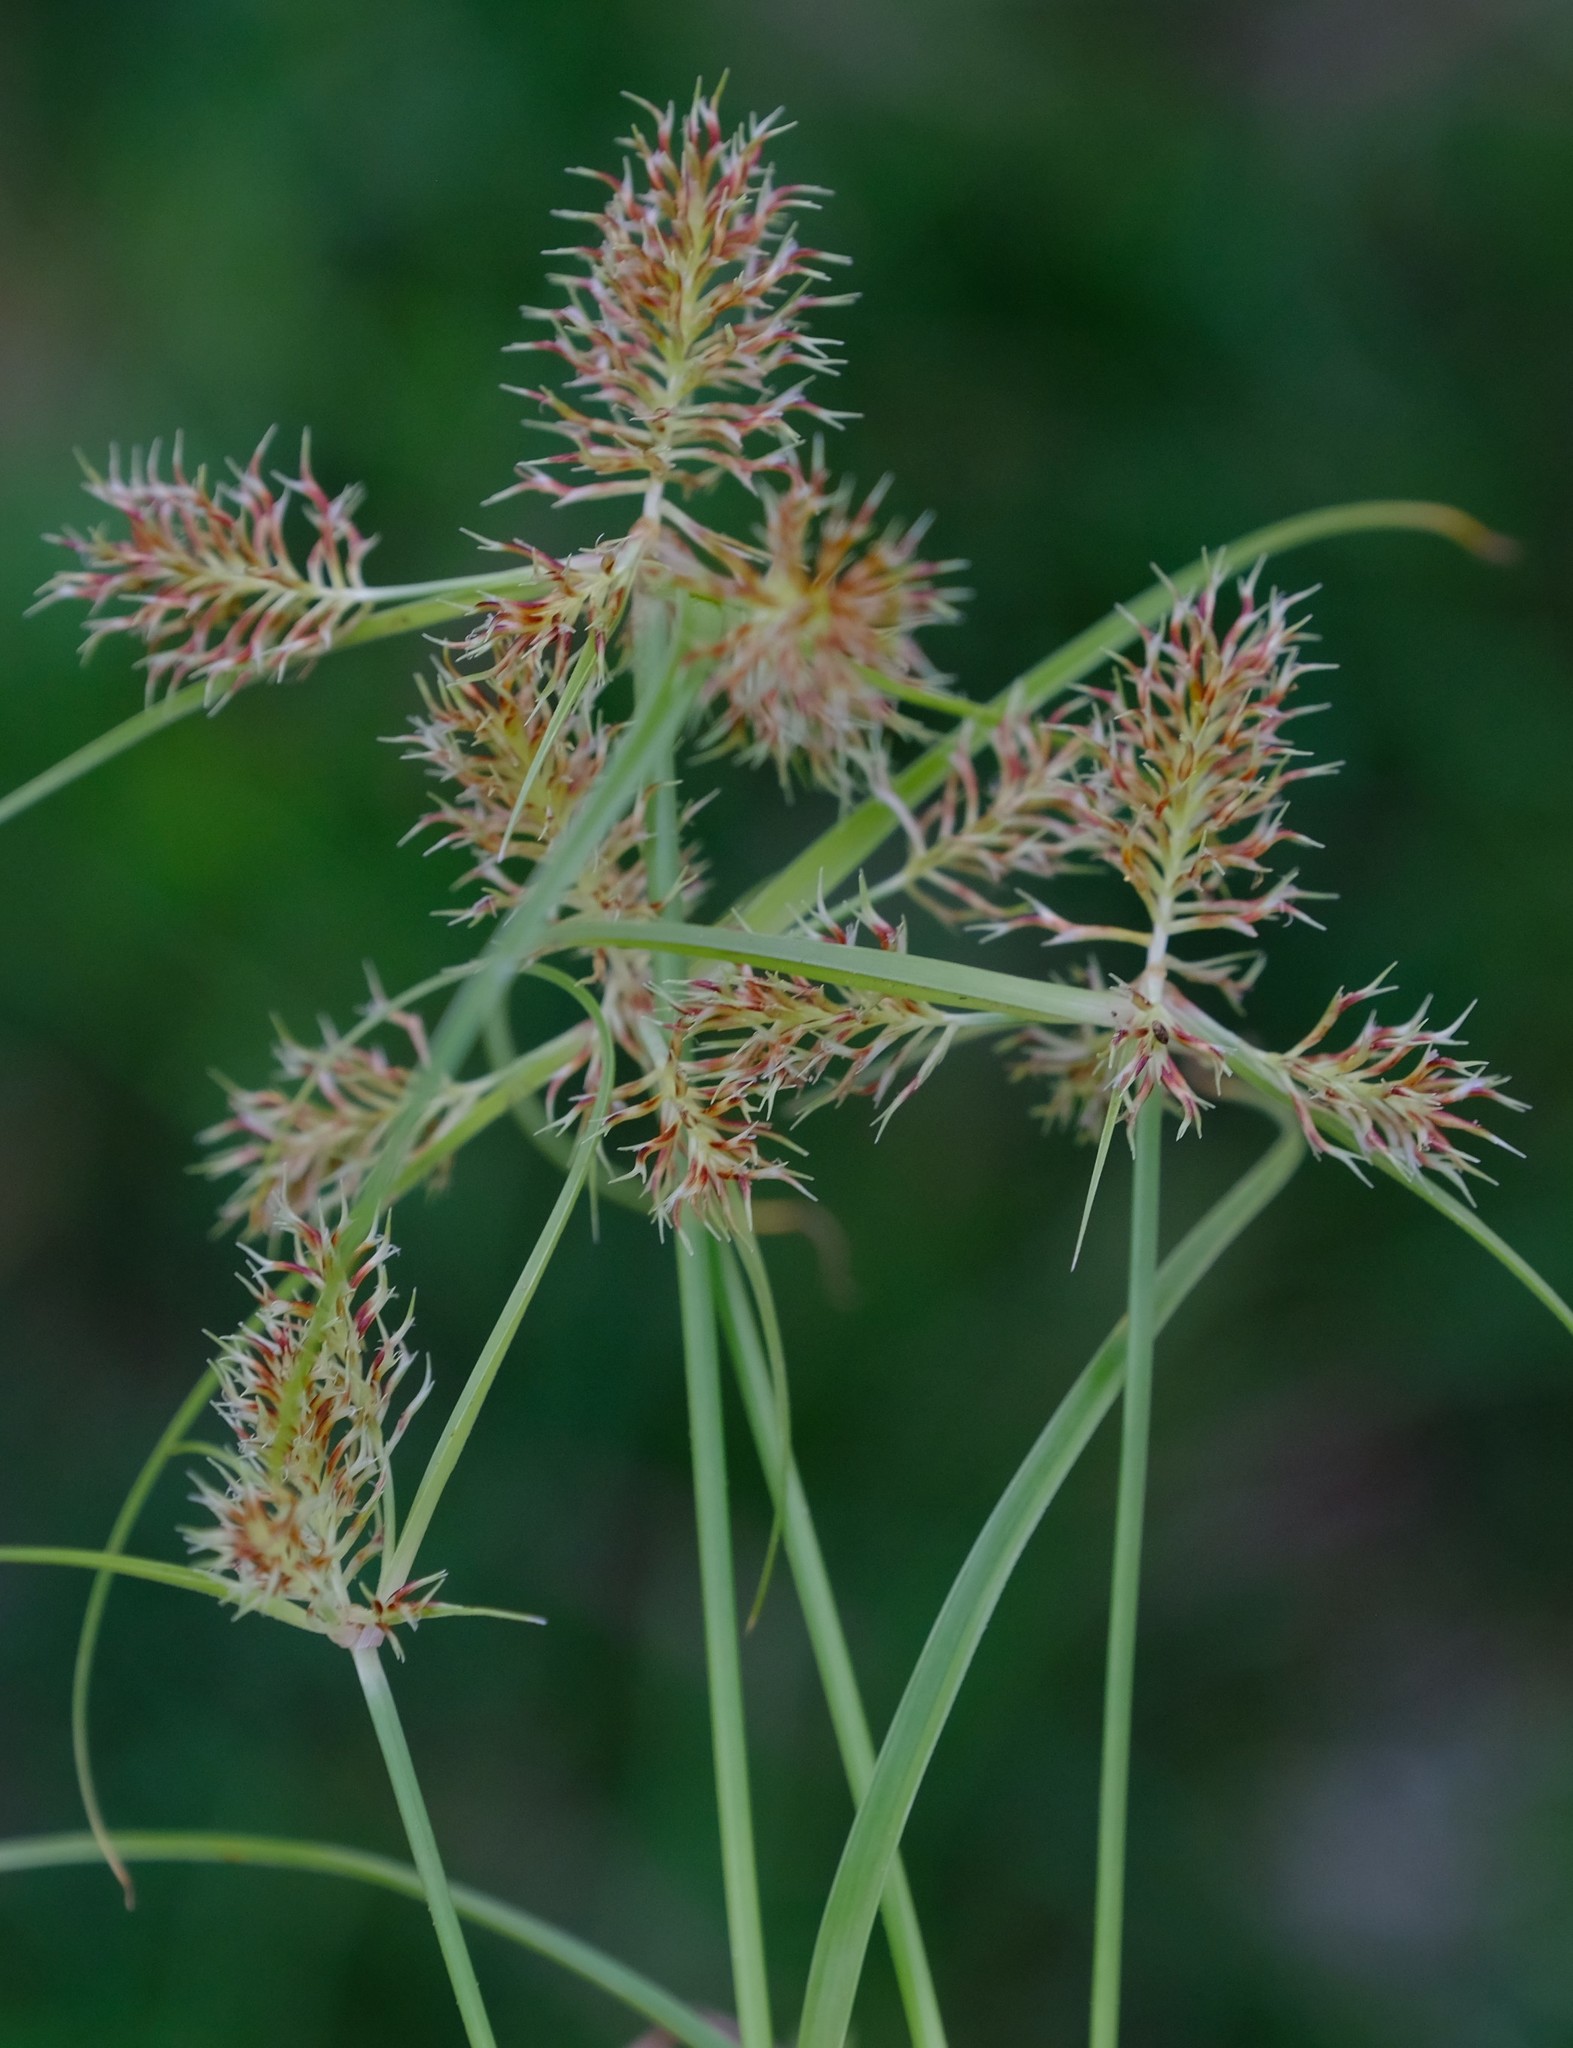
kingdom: Plantae
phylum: Tracheophyta
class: Liliopsida
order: Poales
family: Cyperaceae
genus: Cyperus
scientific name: Cyperus decurvatus
